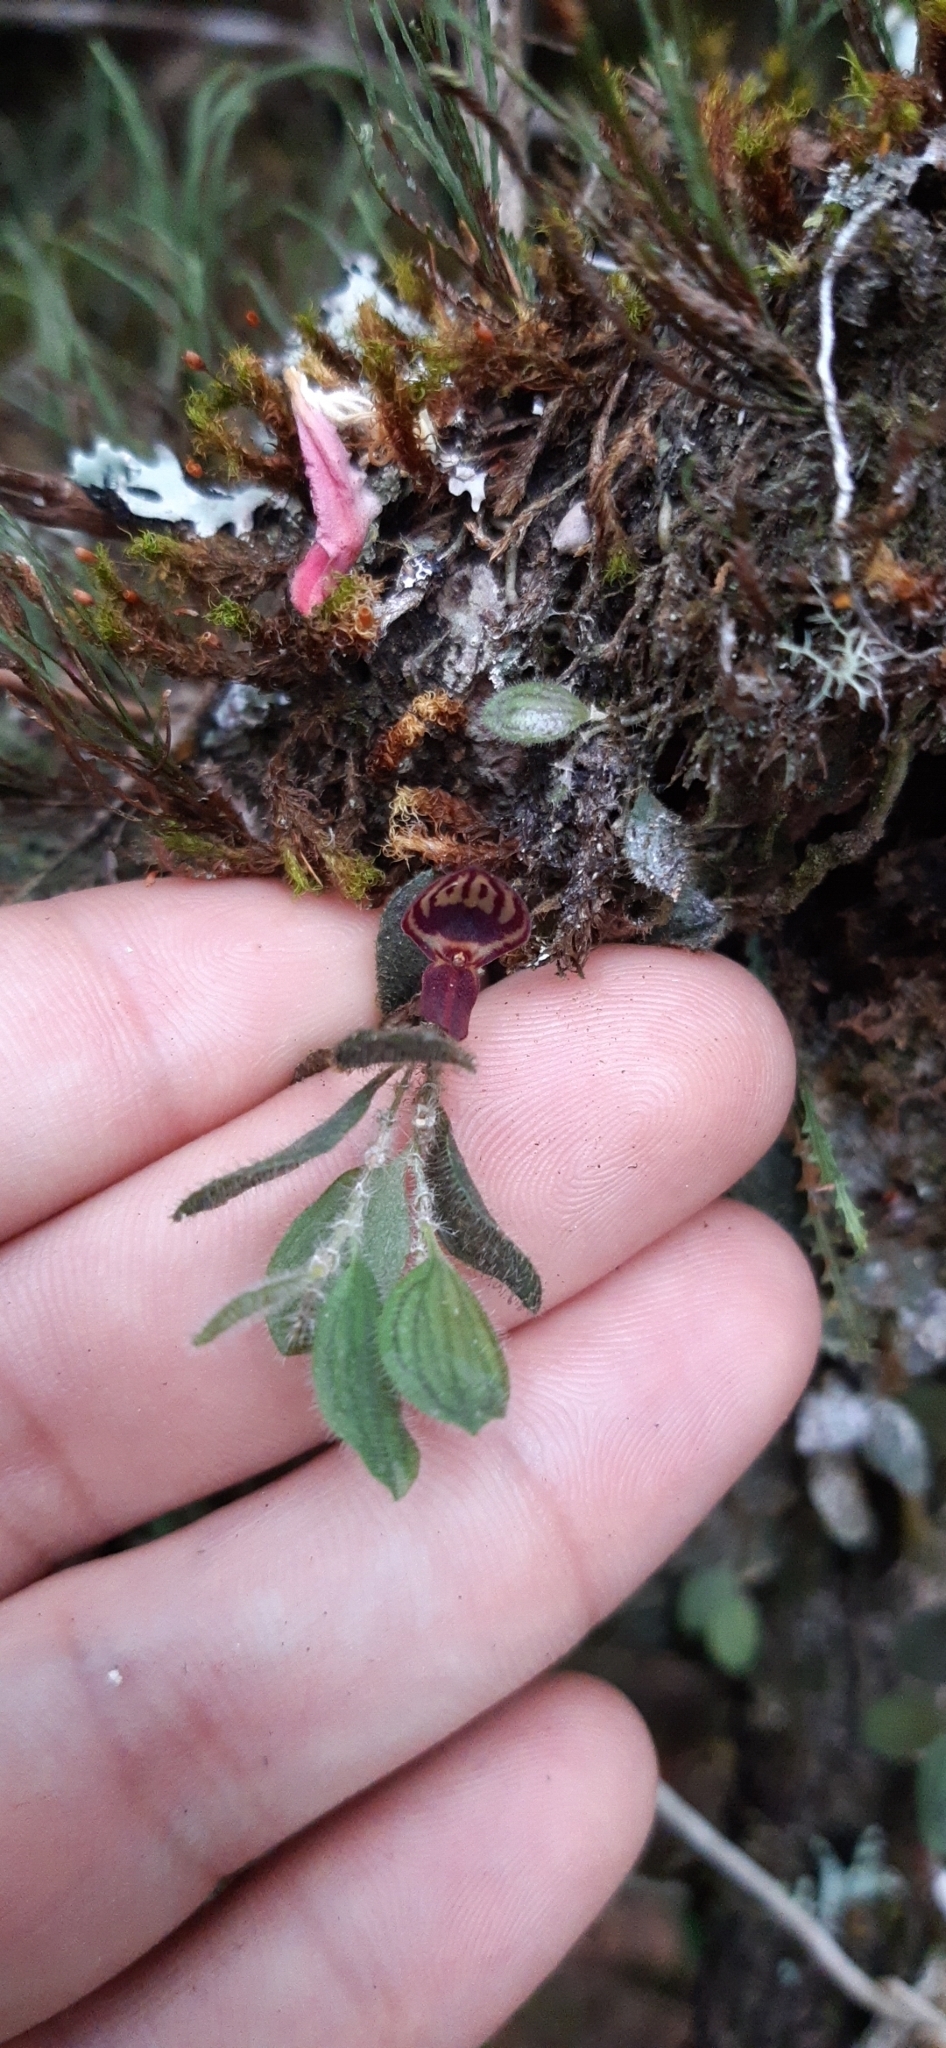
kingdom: Plantae
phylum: Tracheophyta
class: Liliopsida
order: Asparagales
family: Orchidaceae
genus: Andinia
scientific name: Andinia pilosella
